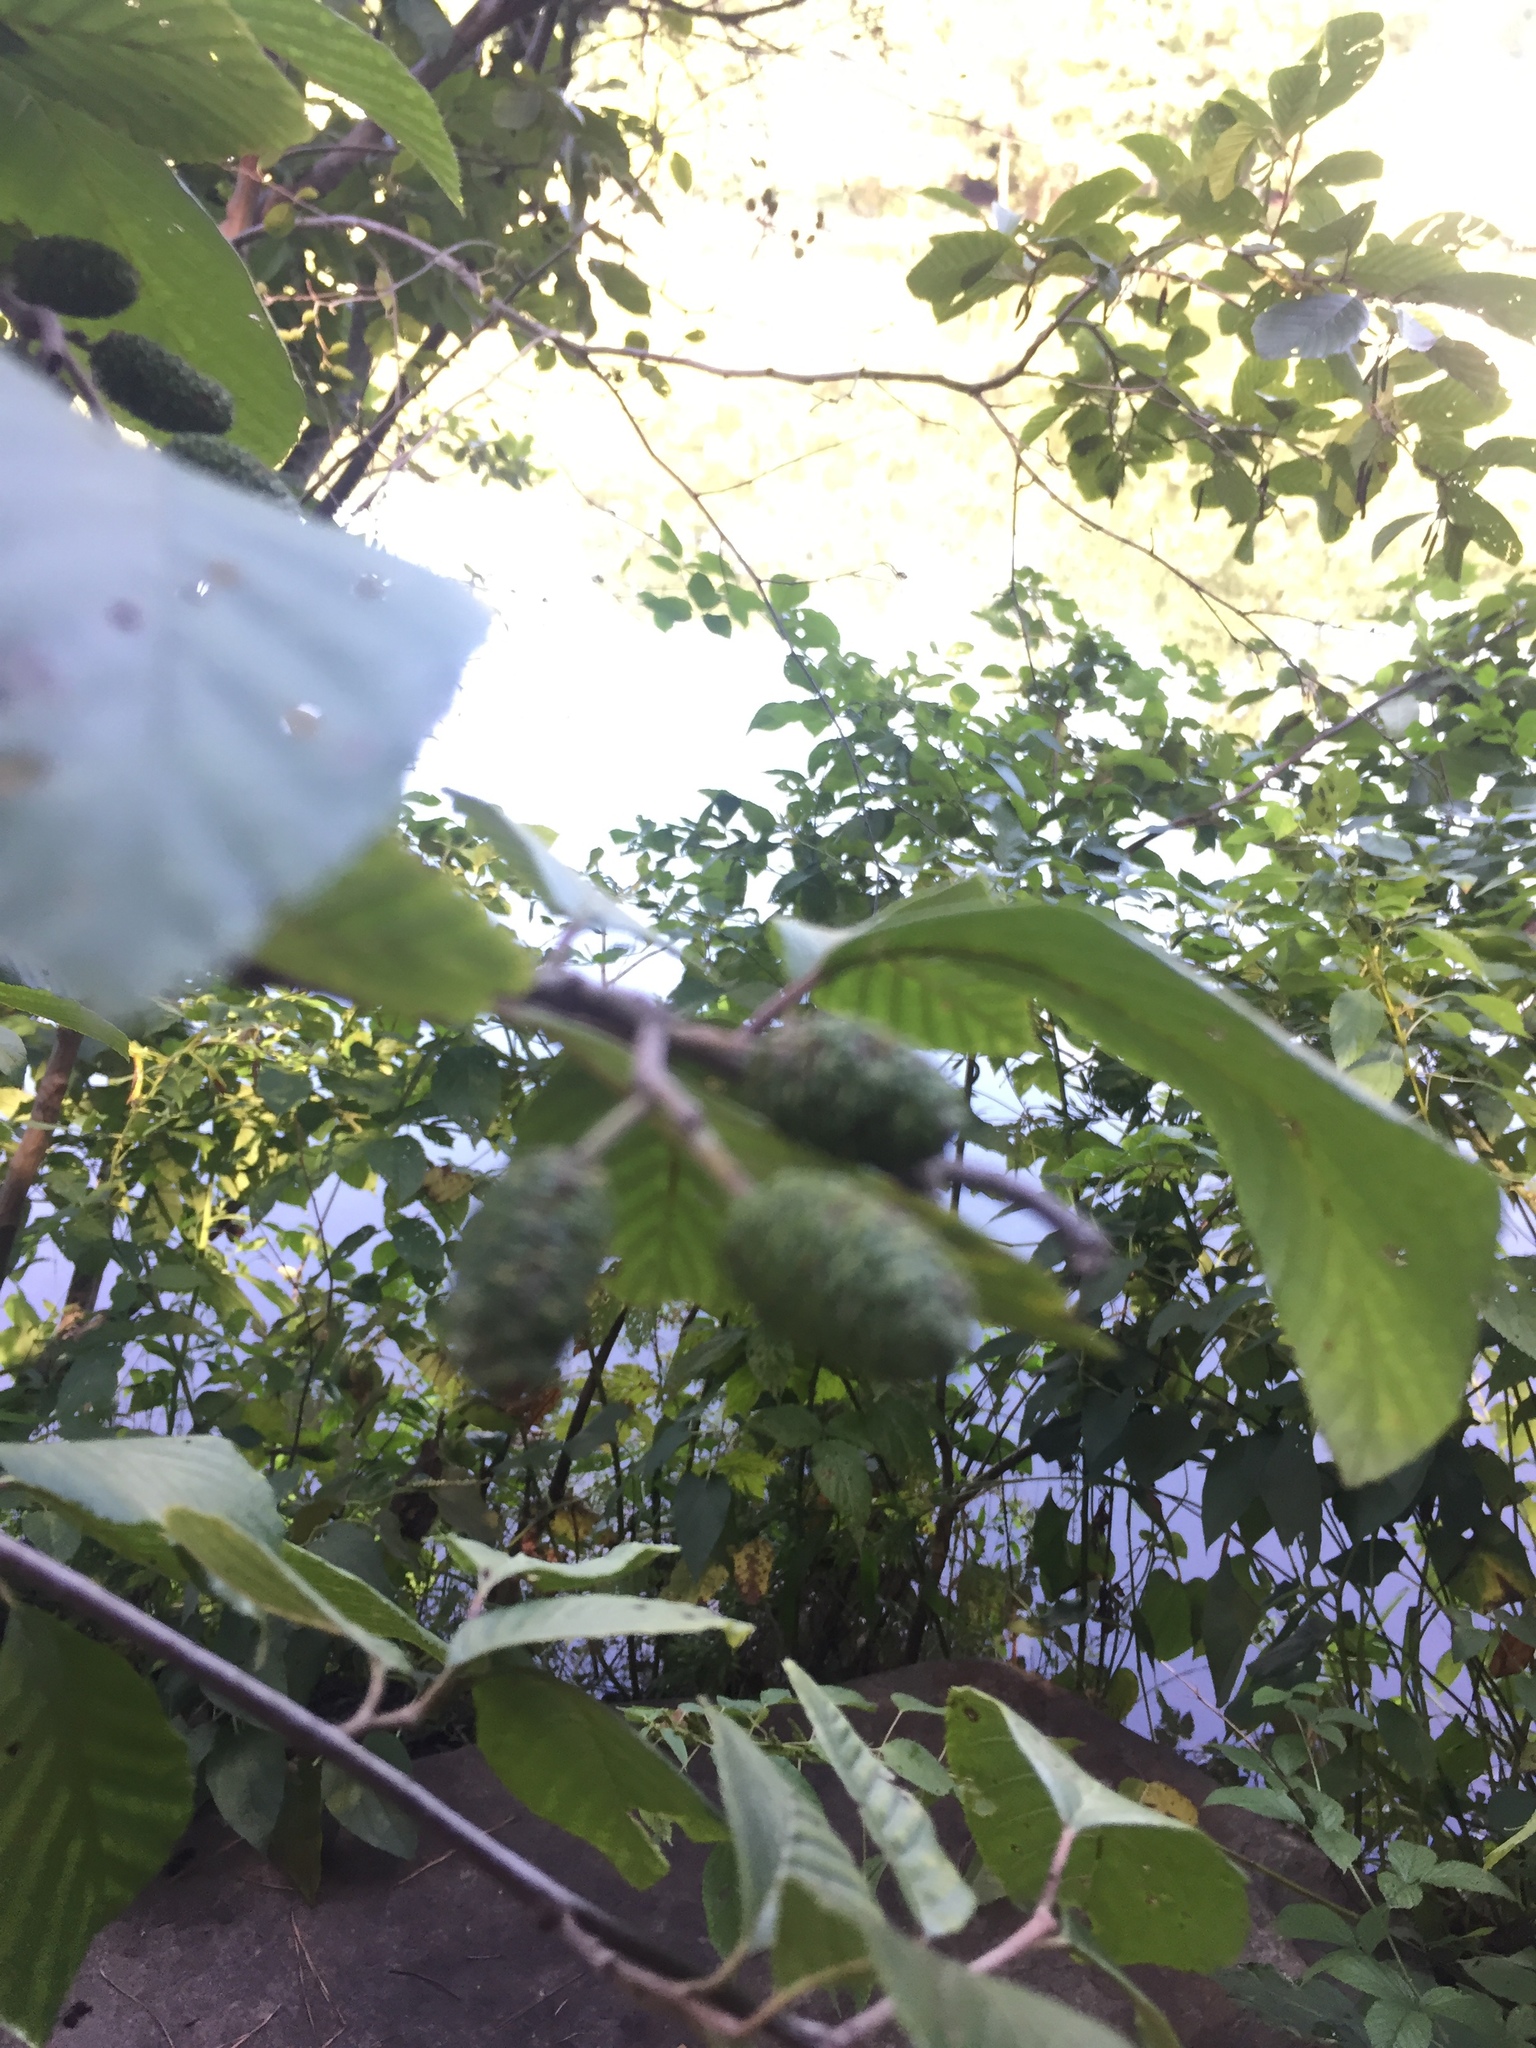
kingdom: Plantae
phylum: Tracheophyta
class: Magnoliopsida
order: Fagales
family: Betulaceae
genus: Alnus
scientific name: Alnus serrulata
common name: Hazel alder
